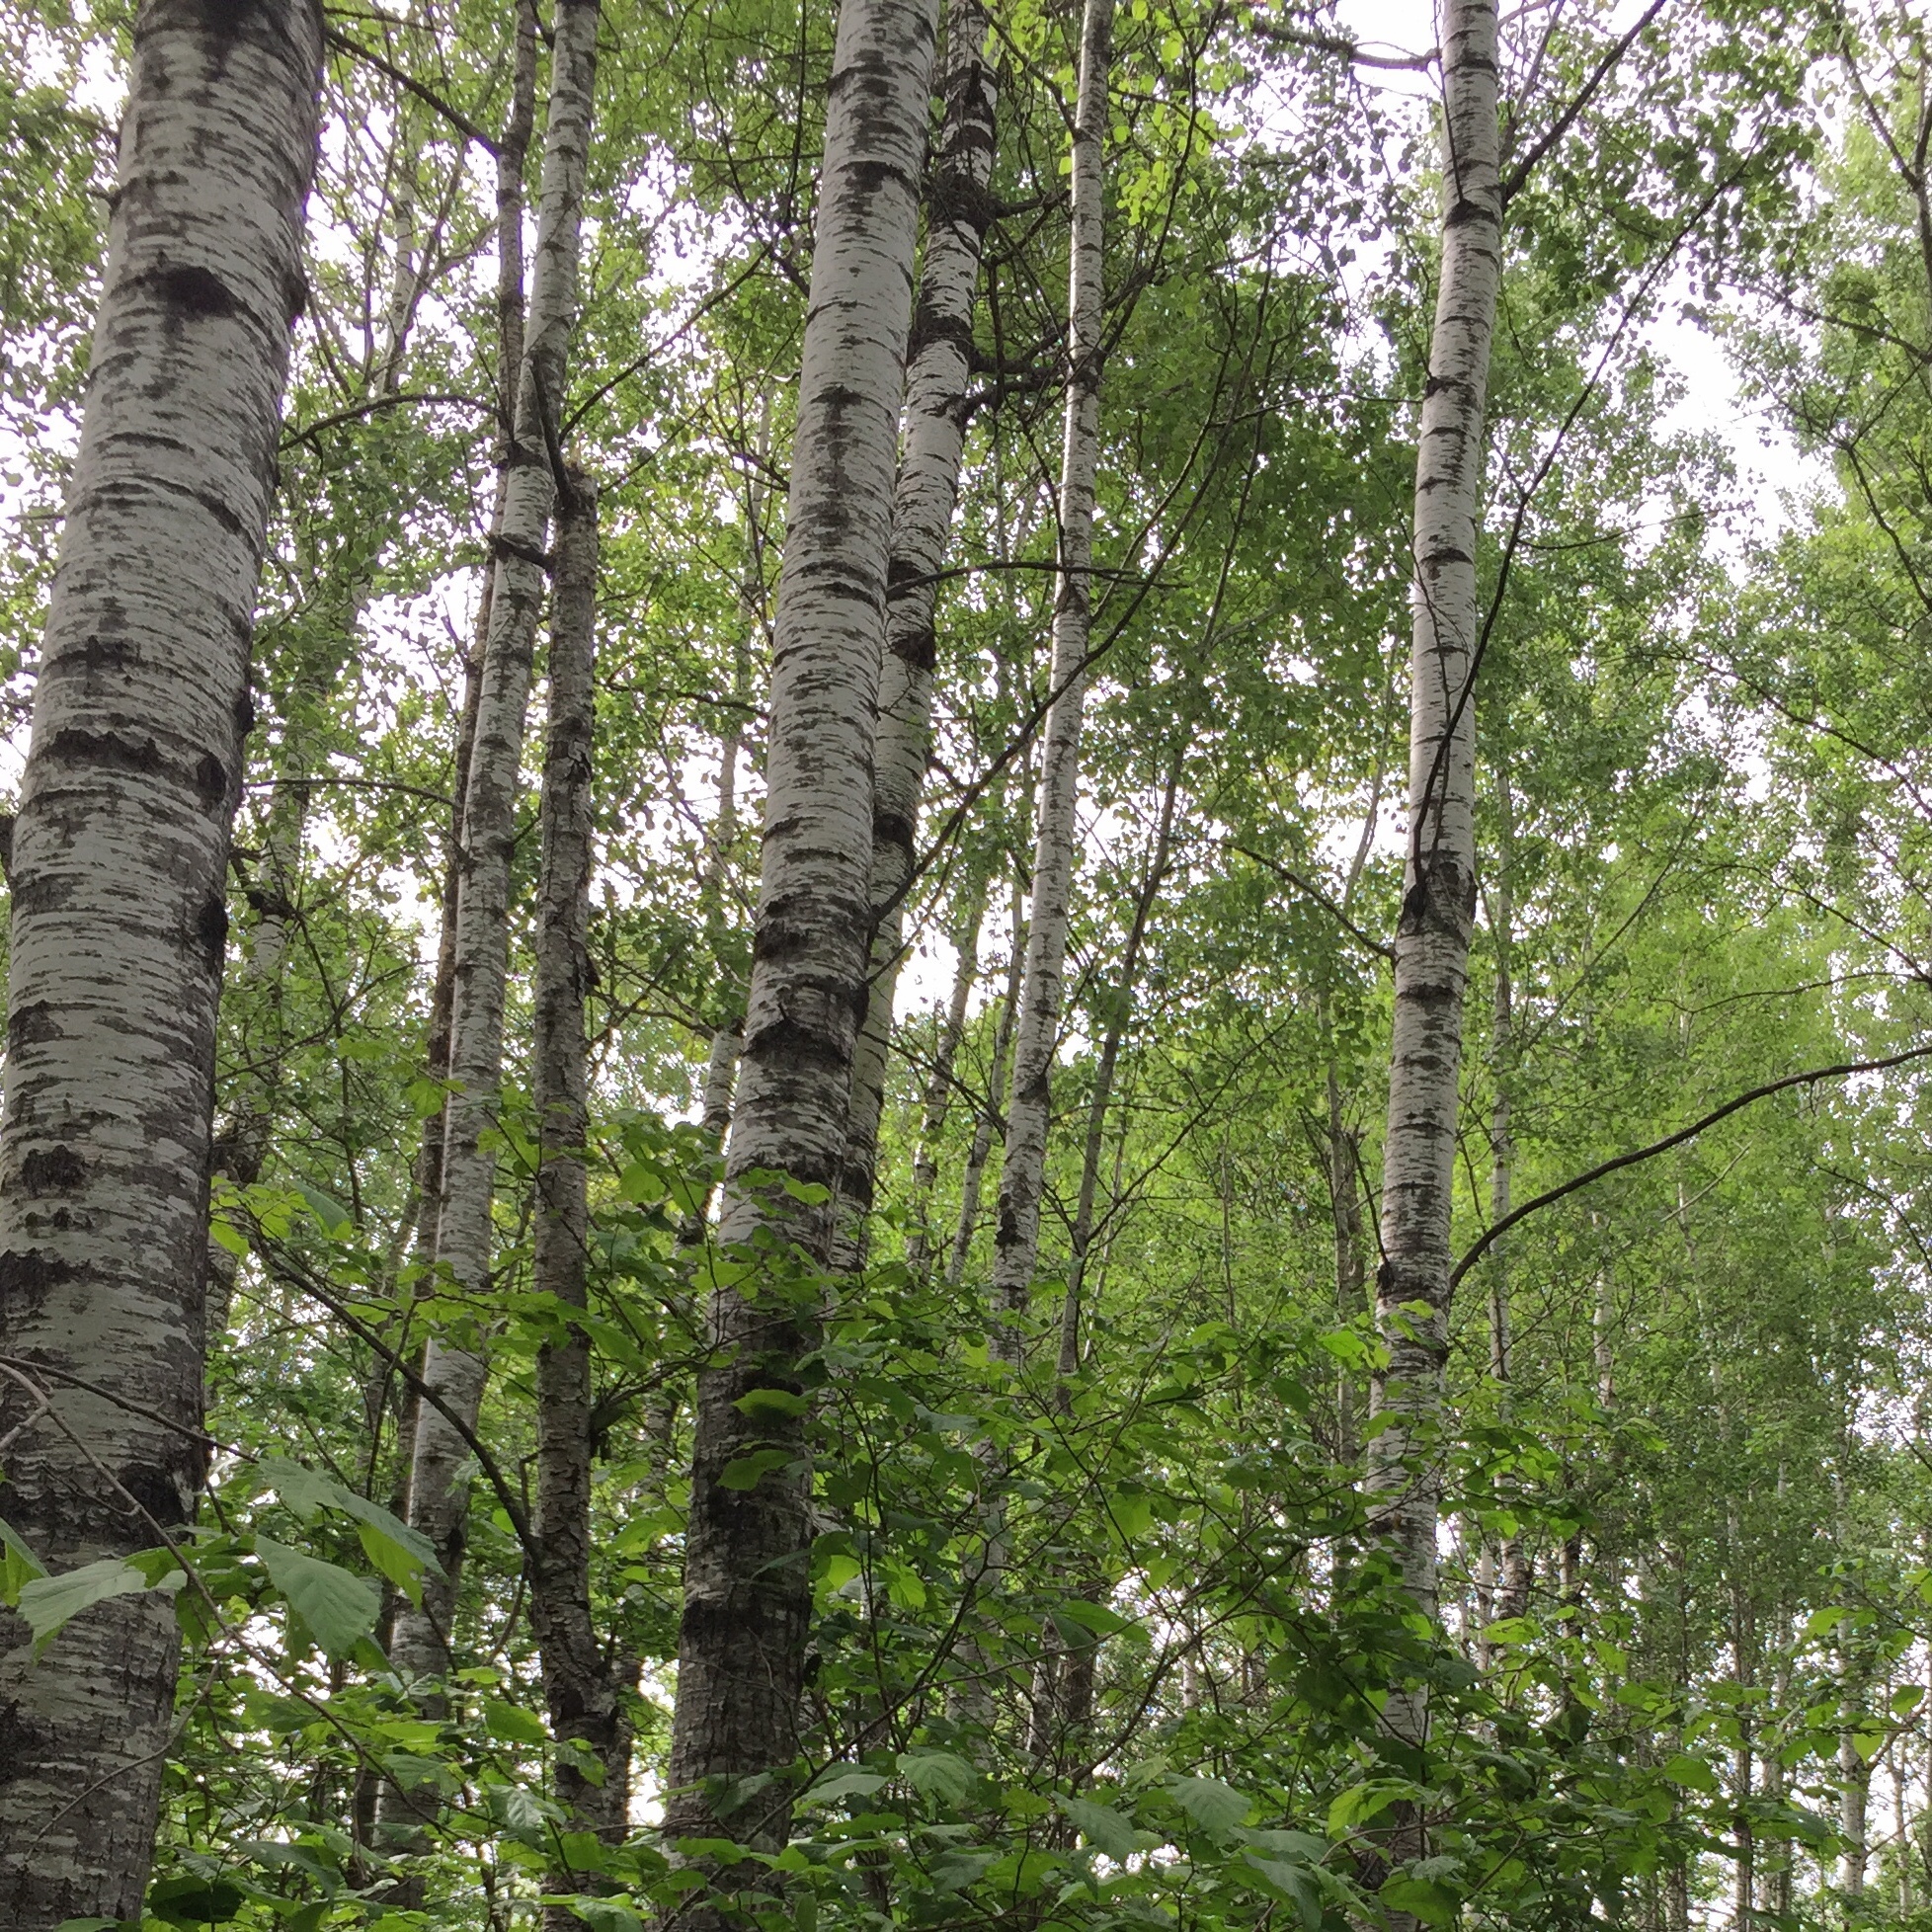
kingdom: Plantae
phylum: Tracheophyta
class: Magnoliopsida
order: Malpighiales
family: Salicaceae
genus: Populus
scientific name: Populus tremuloides
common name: Quaking aspen
